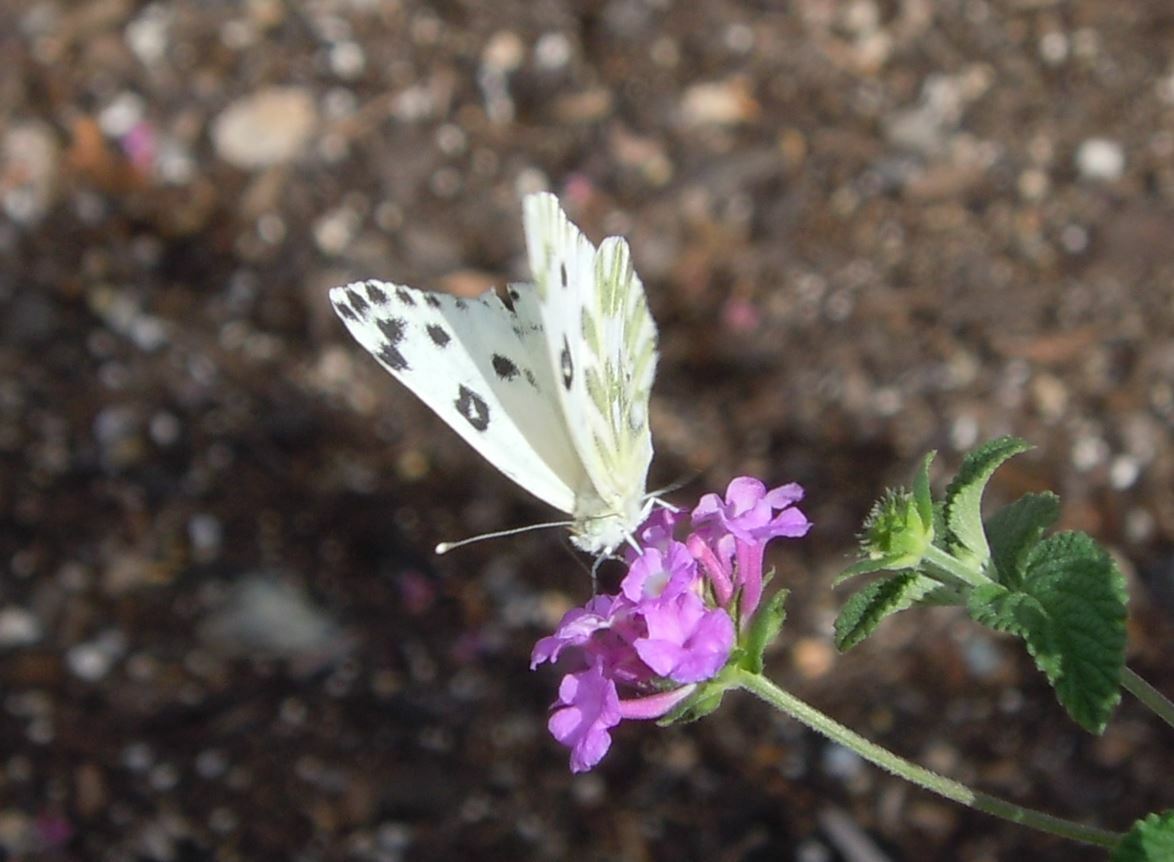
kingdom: Animalia
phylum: Arthropoda
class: Insecta
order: Lepidoptera
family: Pieridae
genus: Pontia
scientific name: Pontia beckerii
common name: Becker's white
